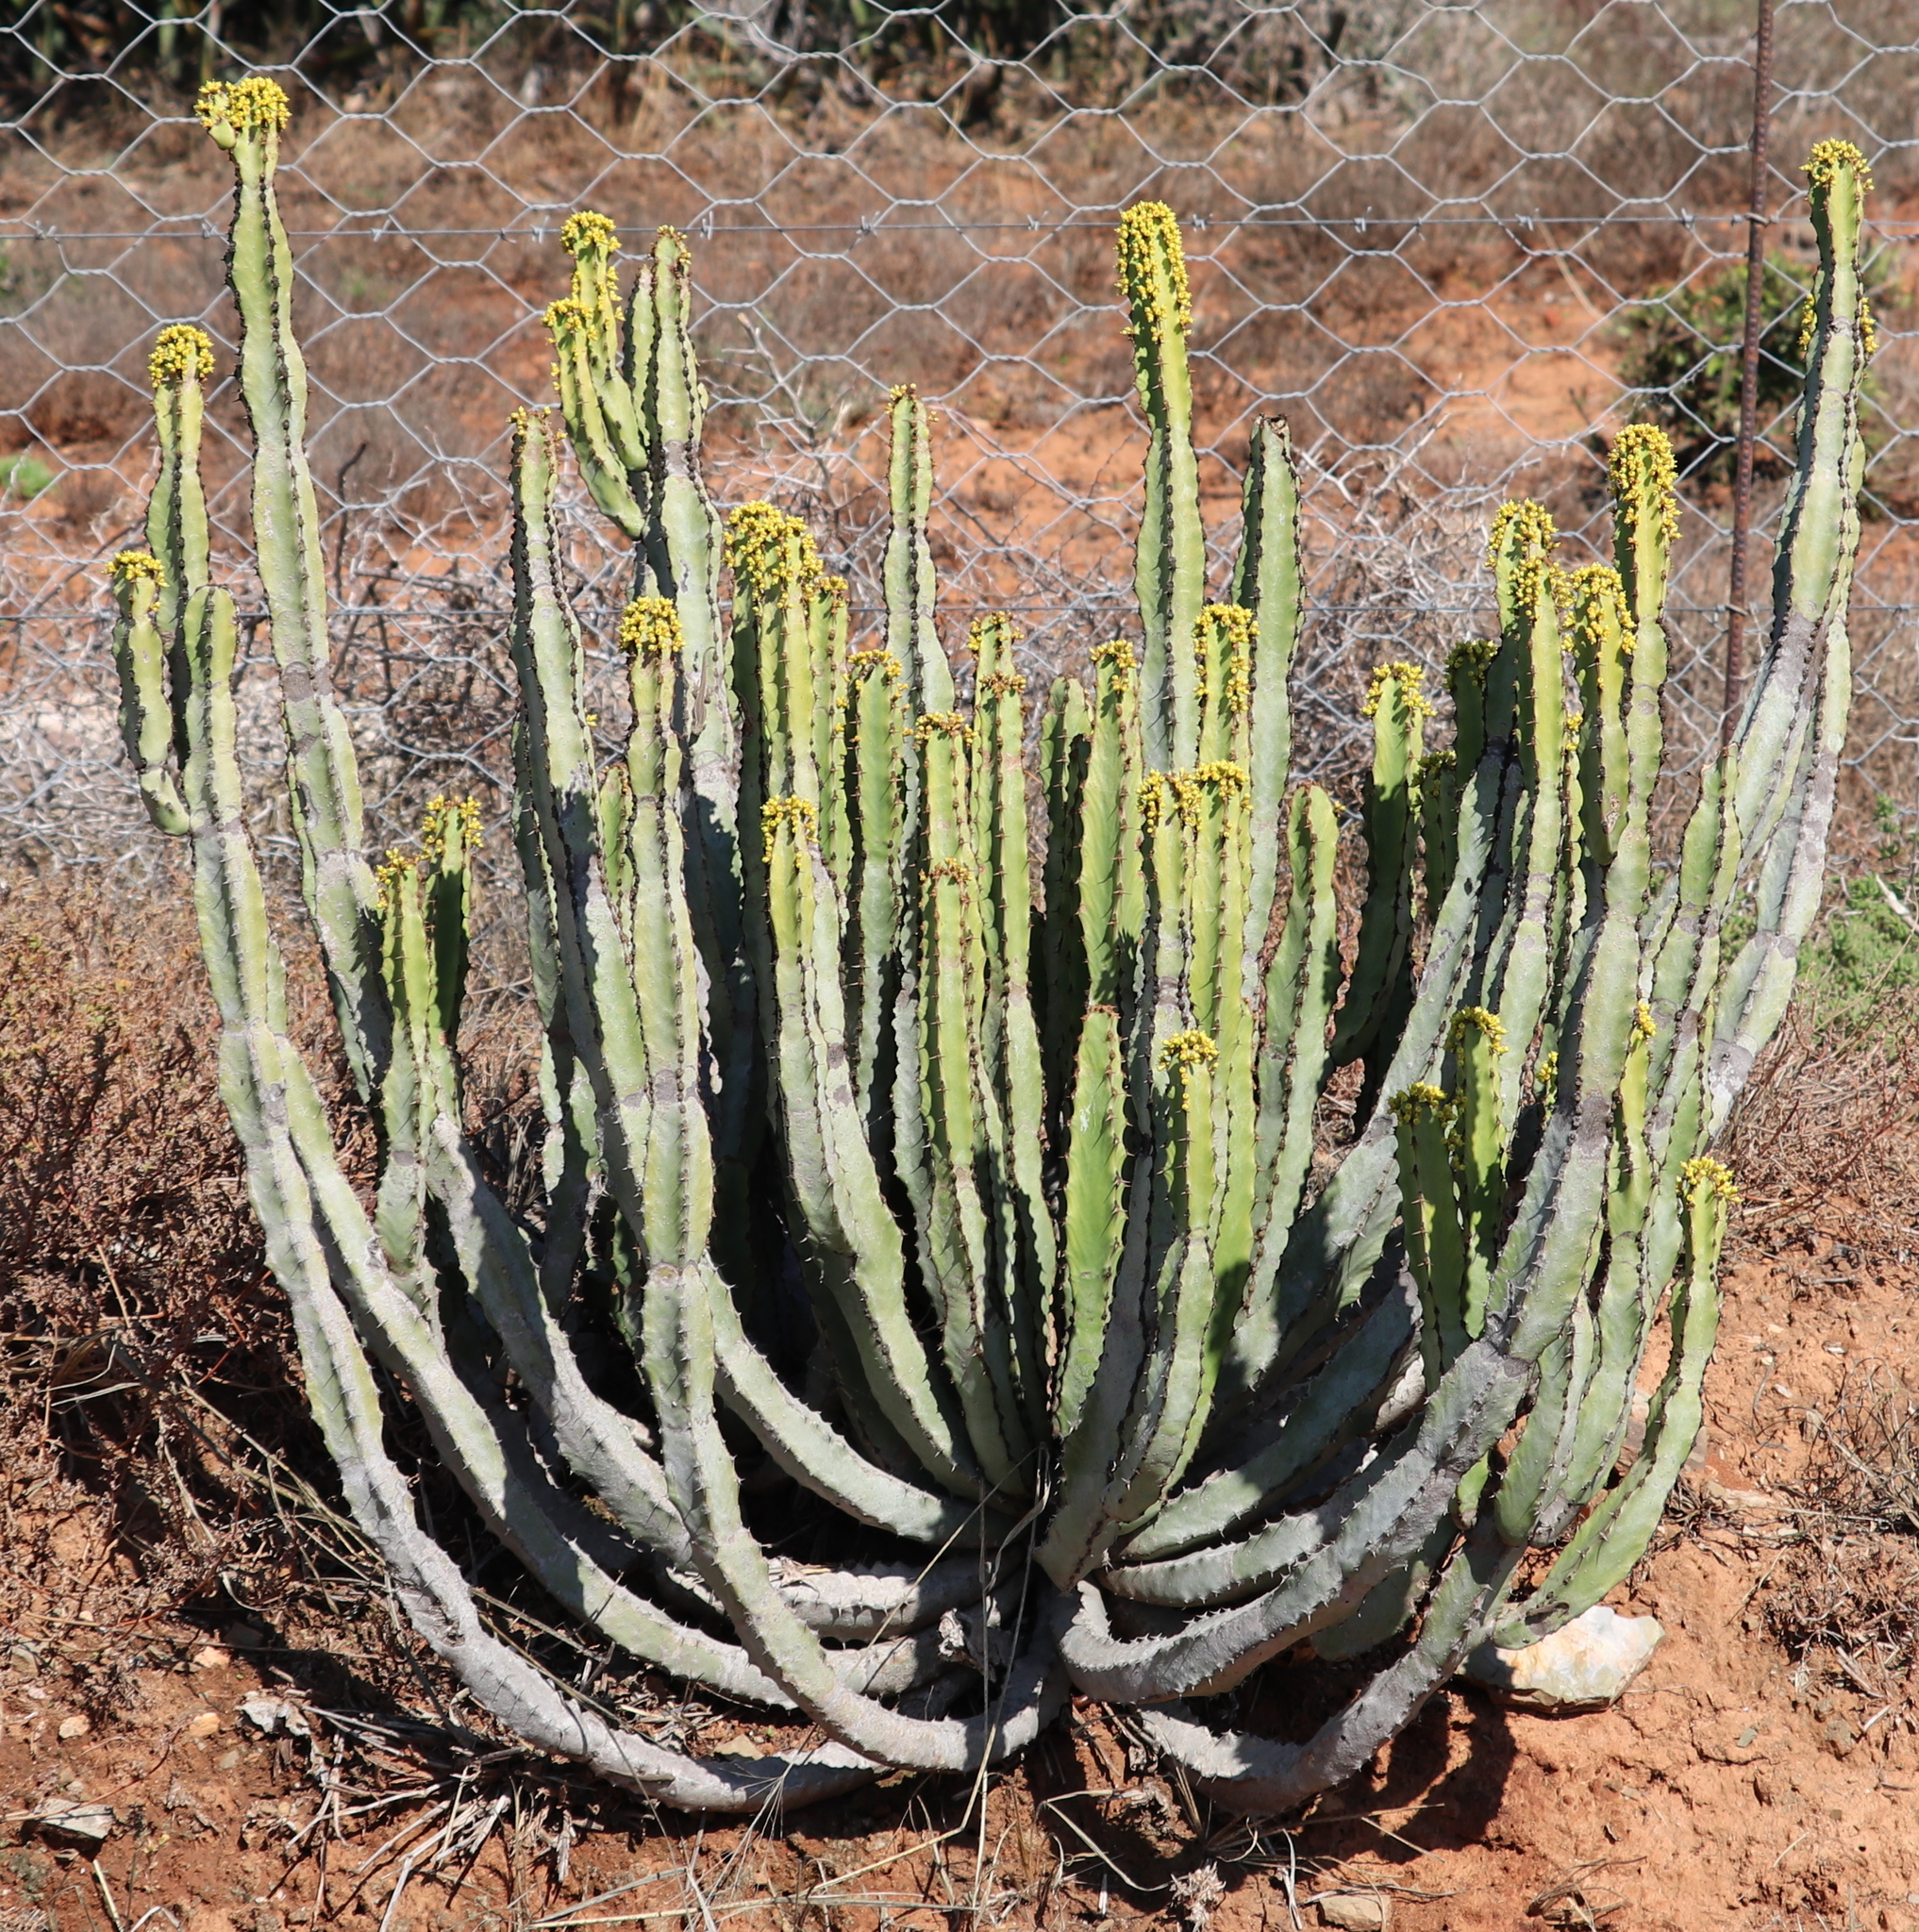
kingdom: Plantae
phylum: Tracheophyta
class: Magnoliopsida
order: Malpighiales
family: Euphorbiaceae
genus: Euphorbia
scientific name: Euphorbia caerulescens
